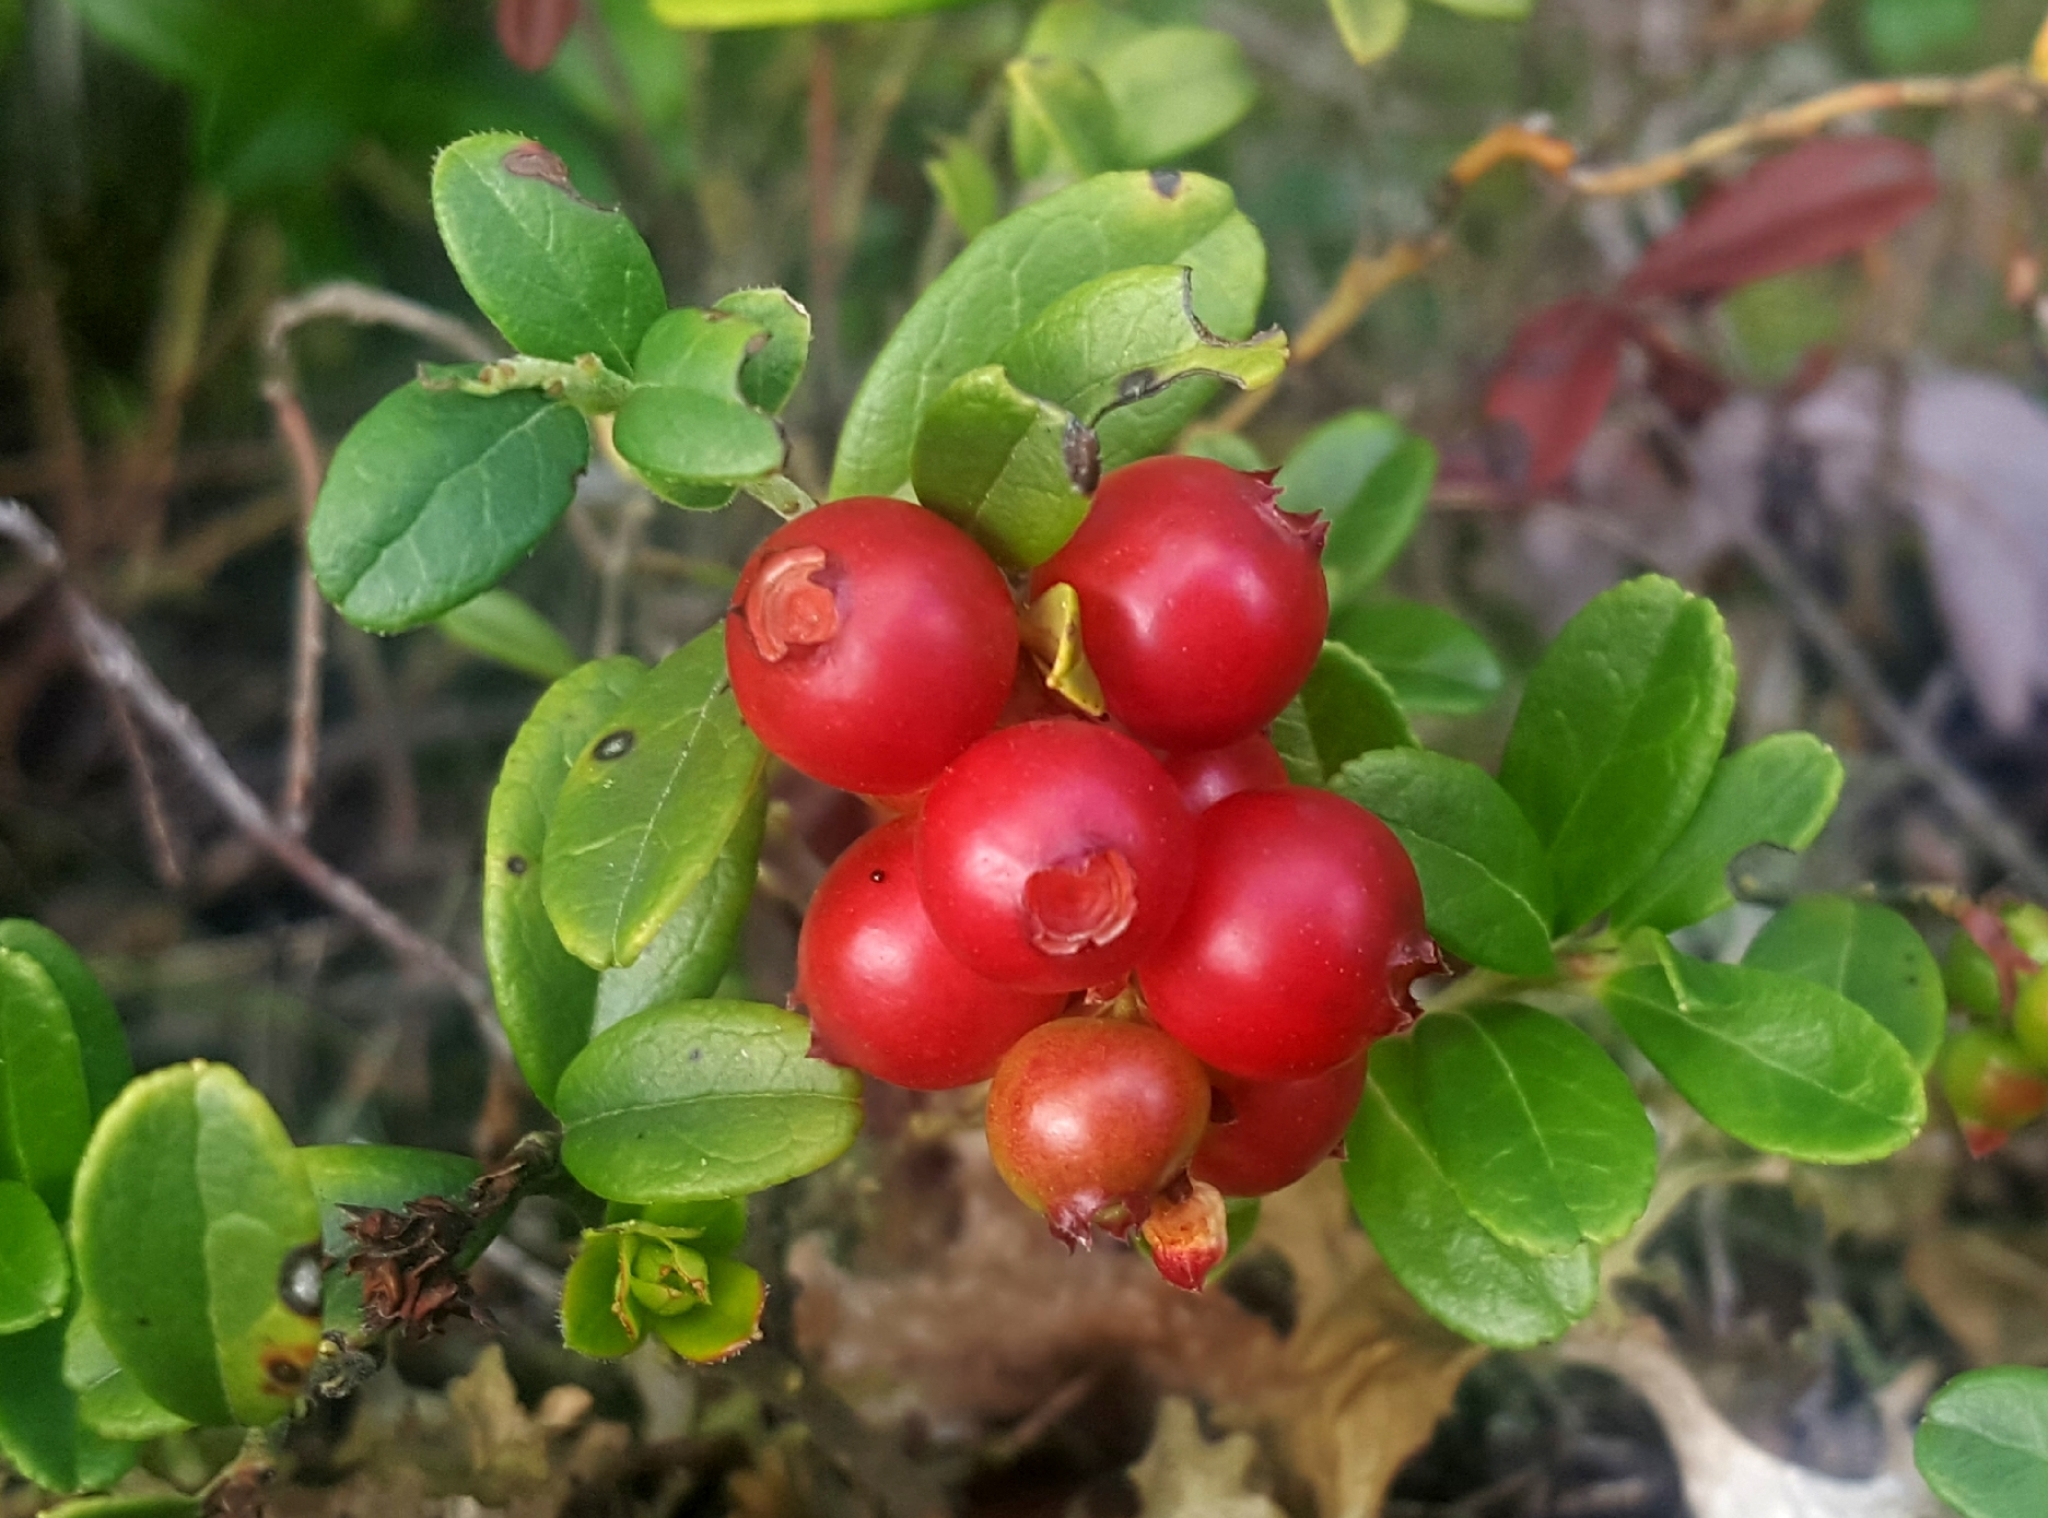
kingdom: Plantae
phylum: Tracheophyta
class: Magnoliopsida
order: Ericales
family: Ericaceae
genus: Vaccinium
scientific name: Vaccinium vitis-idaea
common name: Cowberry
